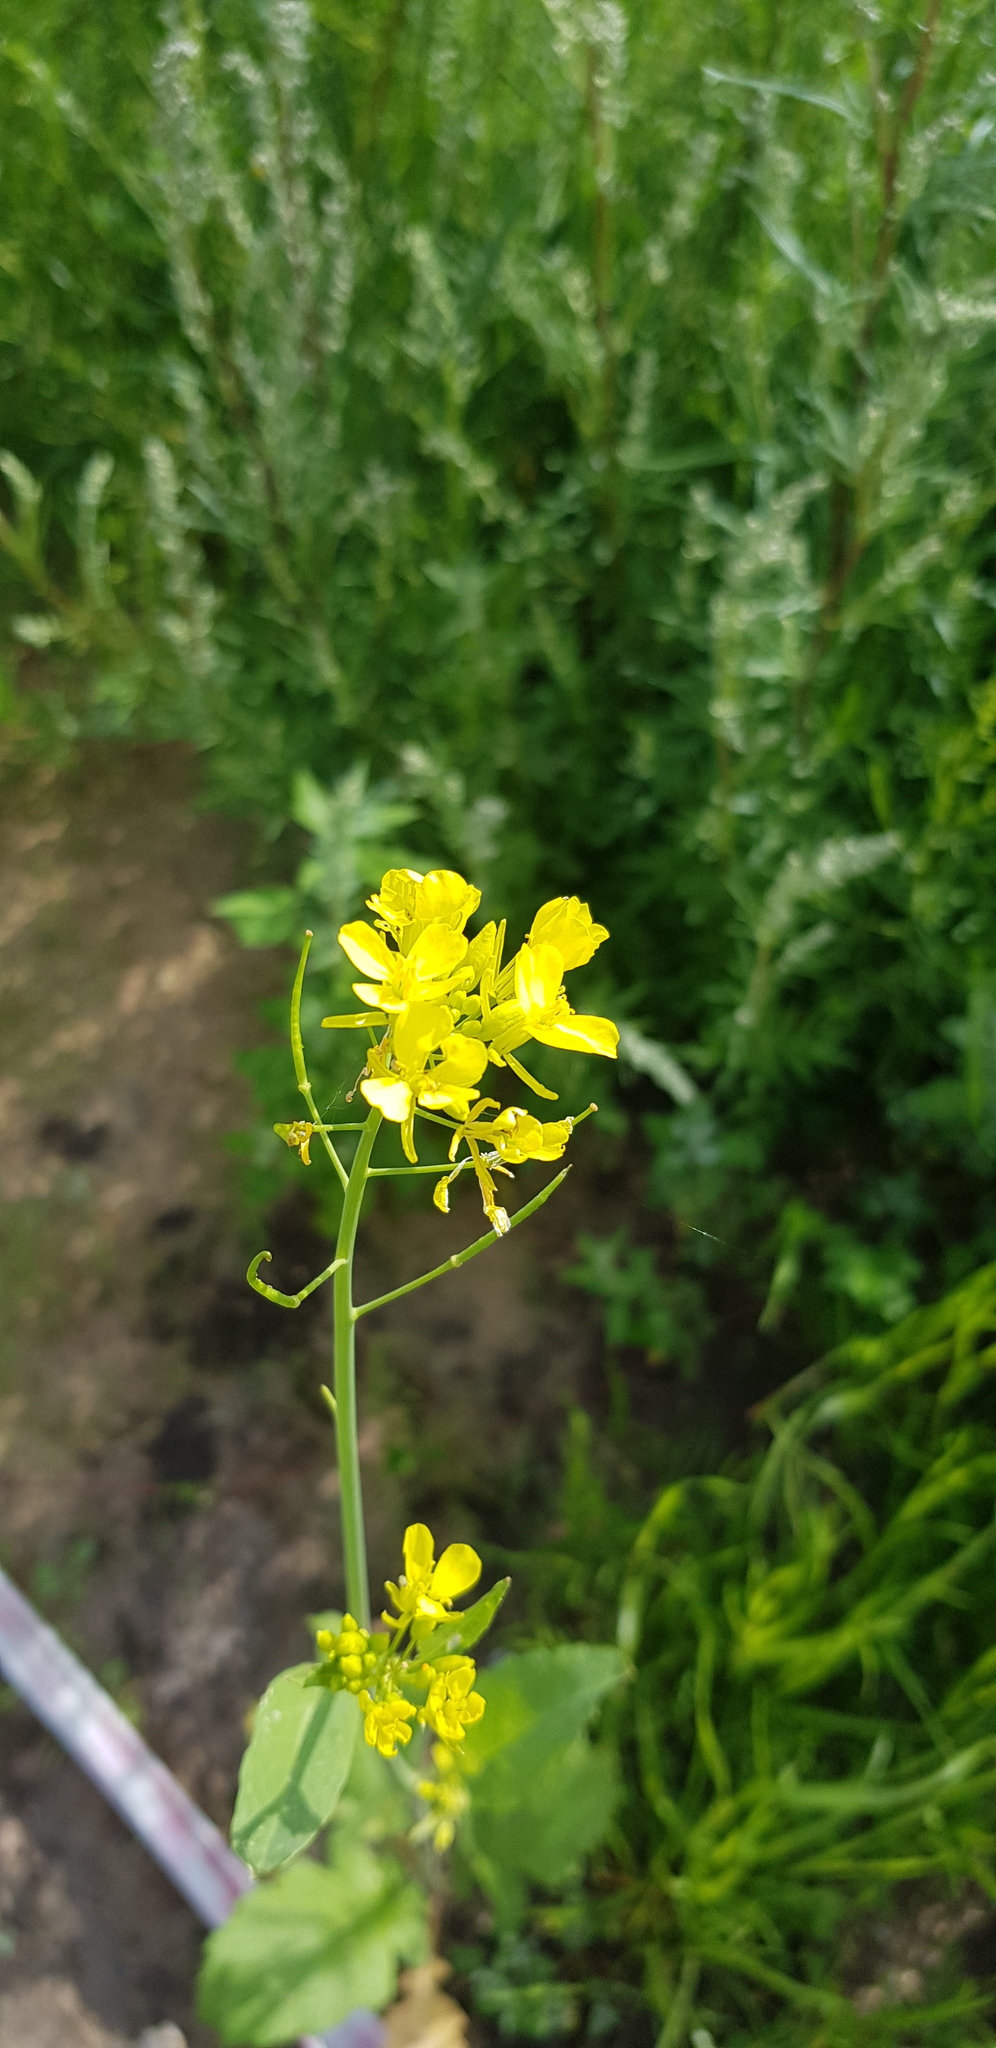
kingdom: Plantae
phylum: Tracheophyta
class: Magnoliopsida
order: Brassicales
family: Brassicaceae
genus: Brassica
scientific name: Brassica napus
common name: Rape
